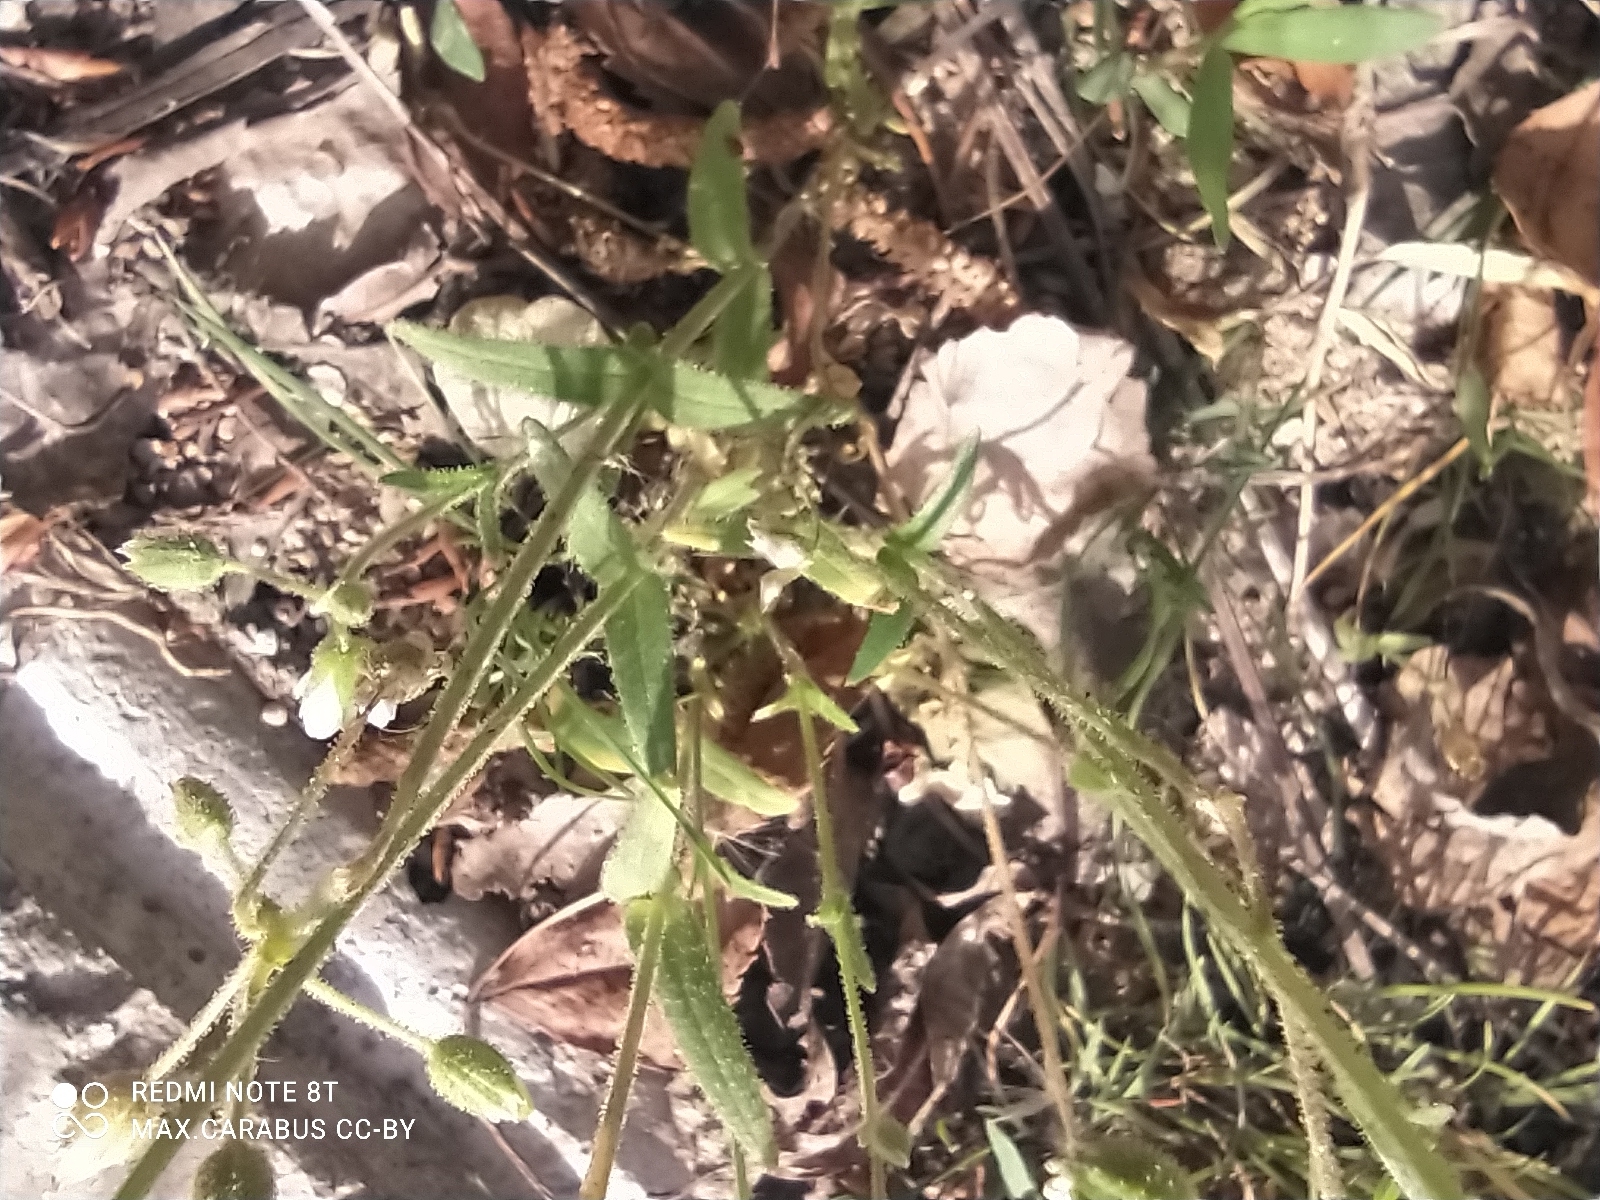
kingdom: Plantae
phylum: Tracheophyta
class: Magnoliopsida
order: Caryophyllales
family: Caryophyllaceae
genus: Holosteum
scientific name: Holosteum glutinosum
